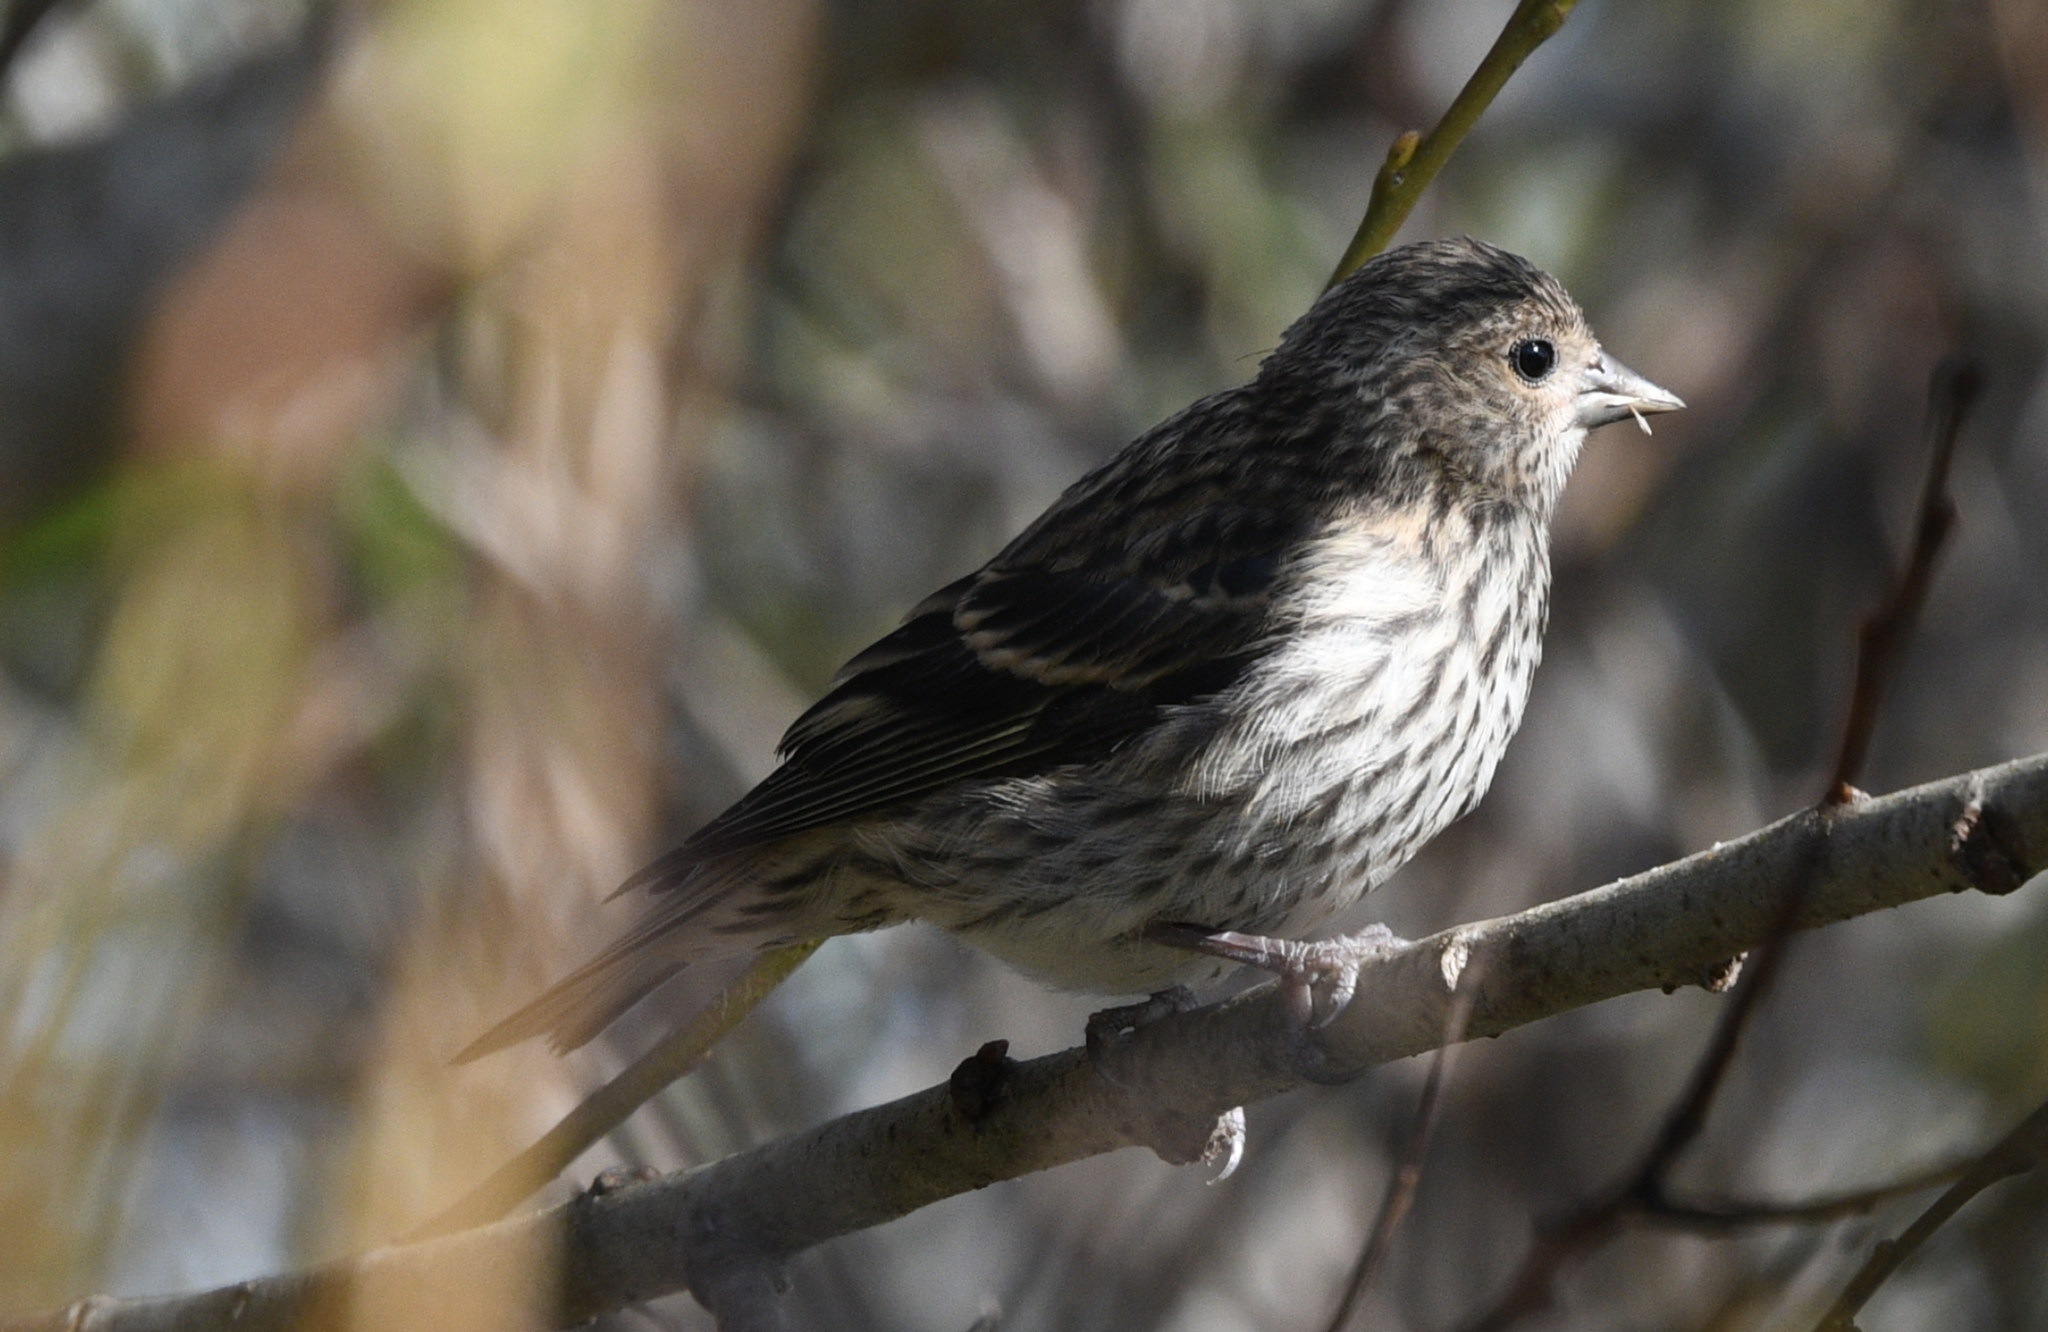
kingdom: Animalia
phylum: Chordata
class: Aves
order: Passeriformes
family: Fringillidae
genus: Spinus
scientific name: Spinus pinus
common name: Pine siskin
